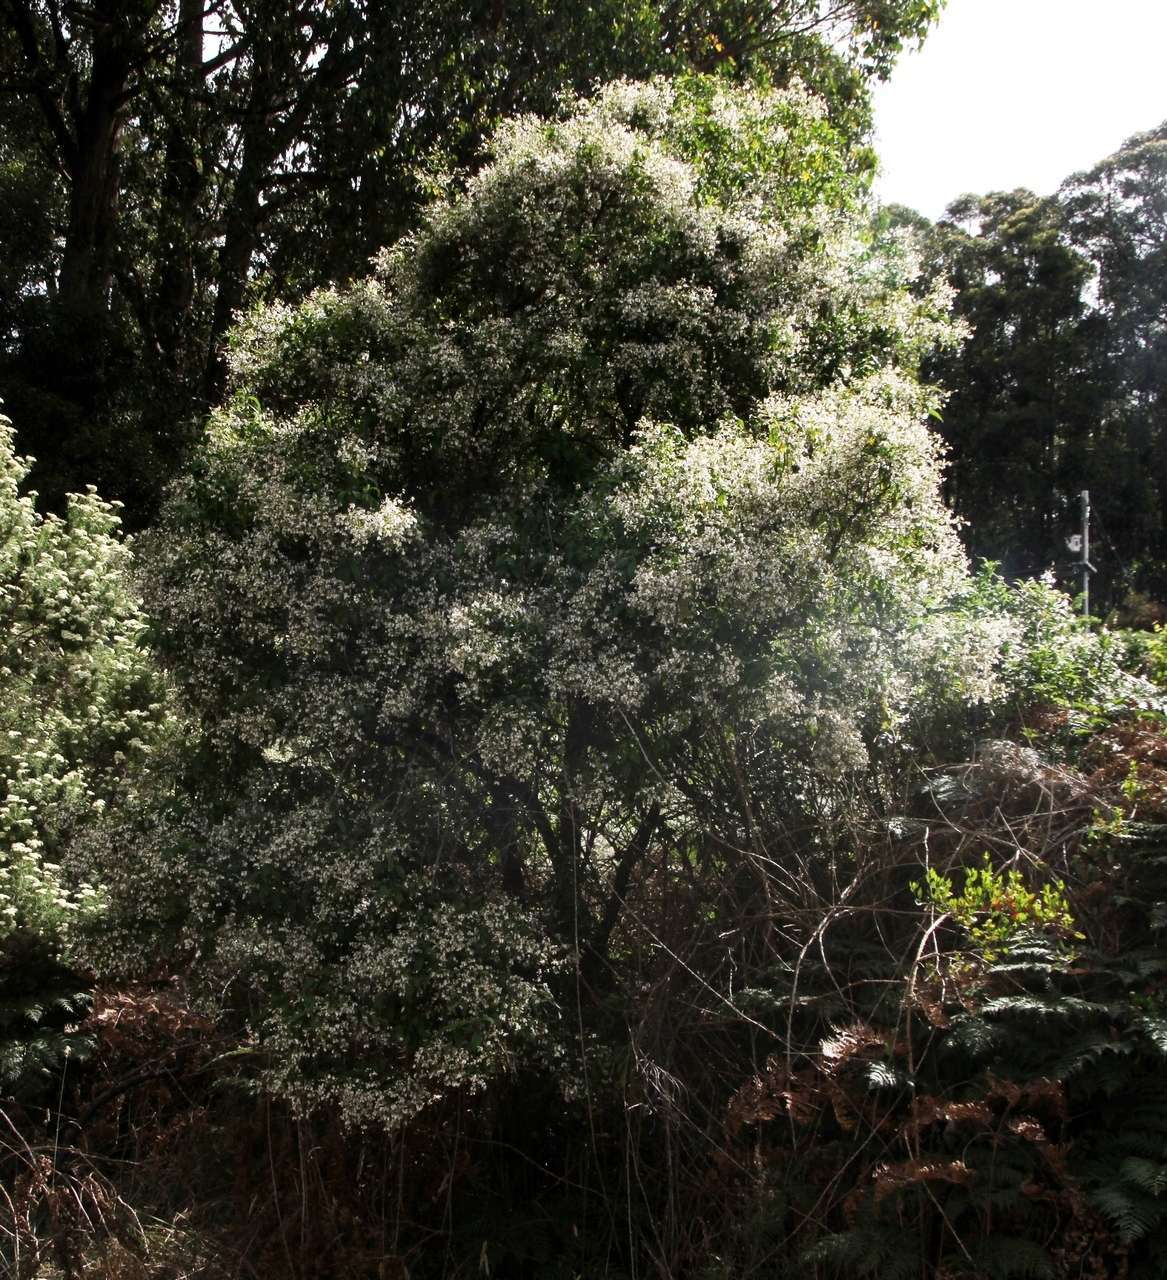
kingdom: Plantae
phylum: Tracheophyta
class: Magnoliopsida
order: Lamiales
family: Lamiaceae
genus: Prostanthera
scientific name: Prostanthera lasianthos
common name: Mountain-lilac
